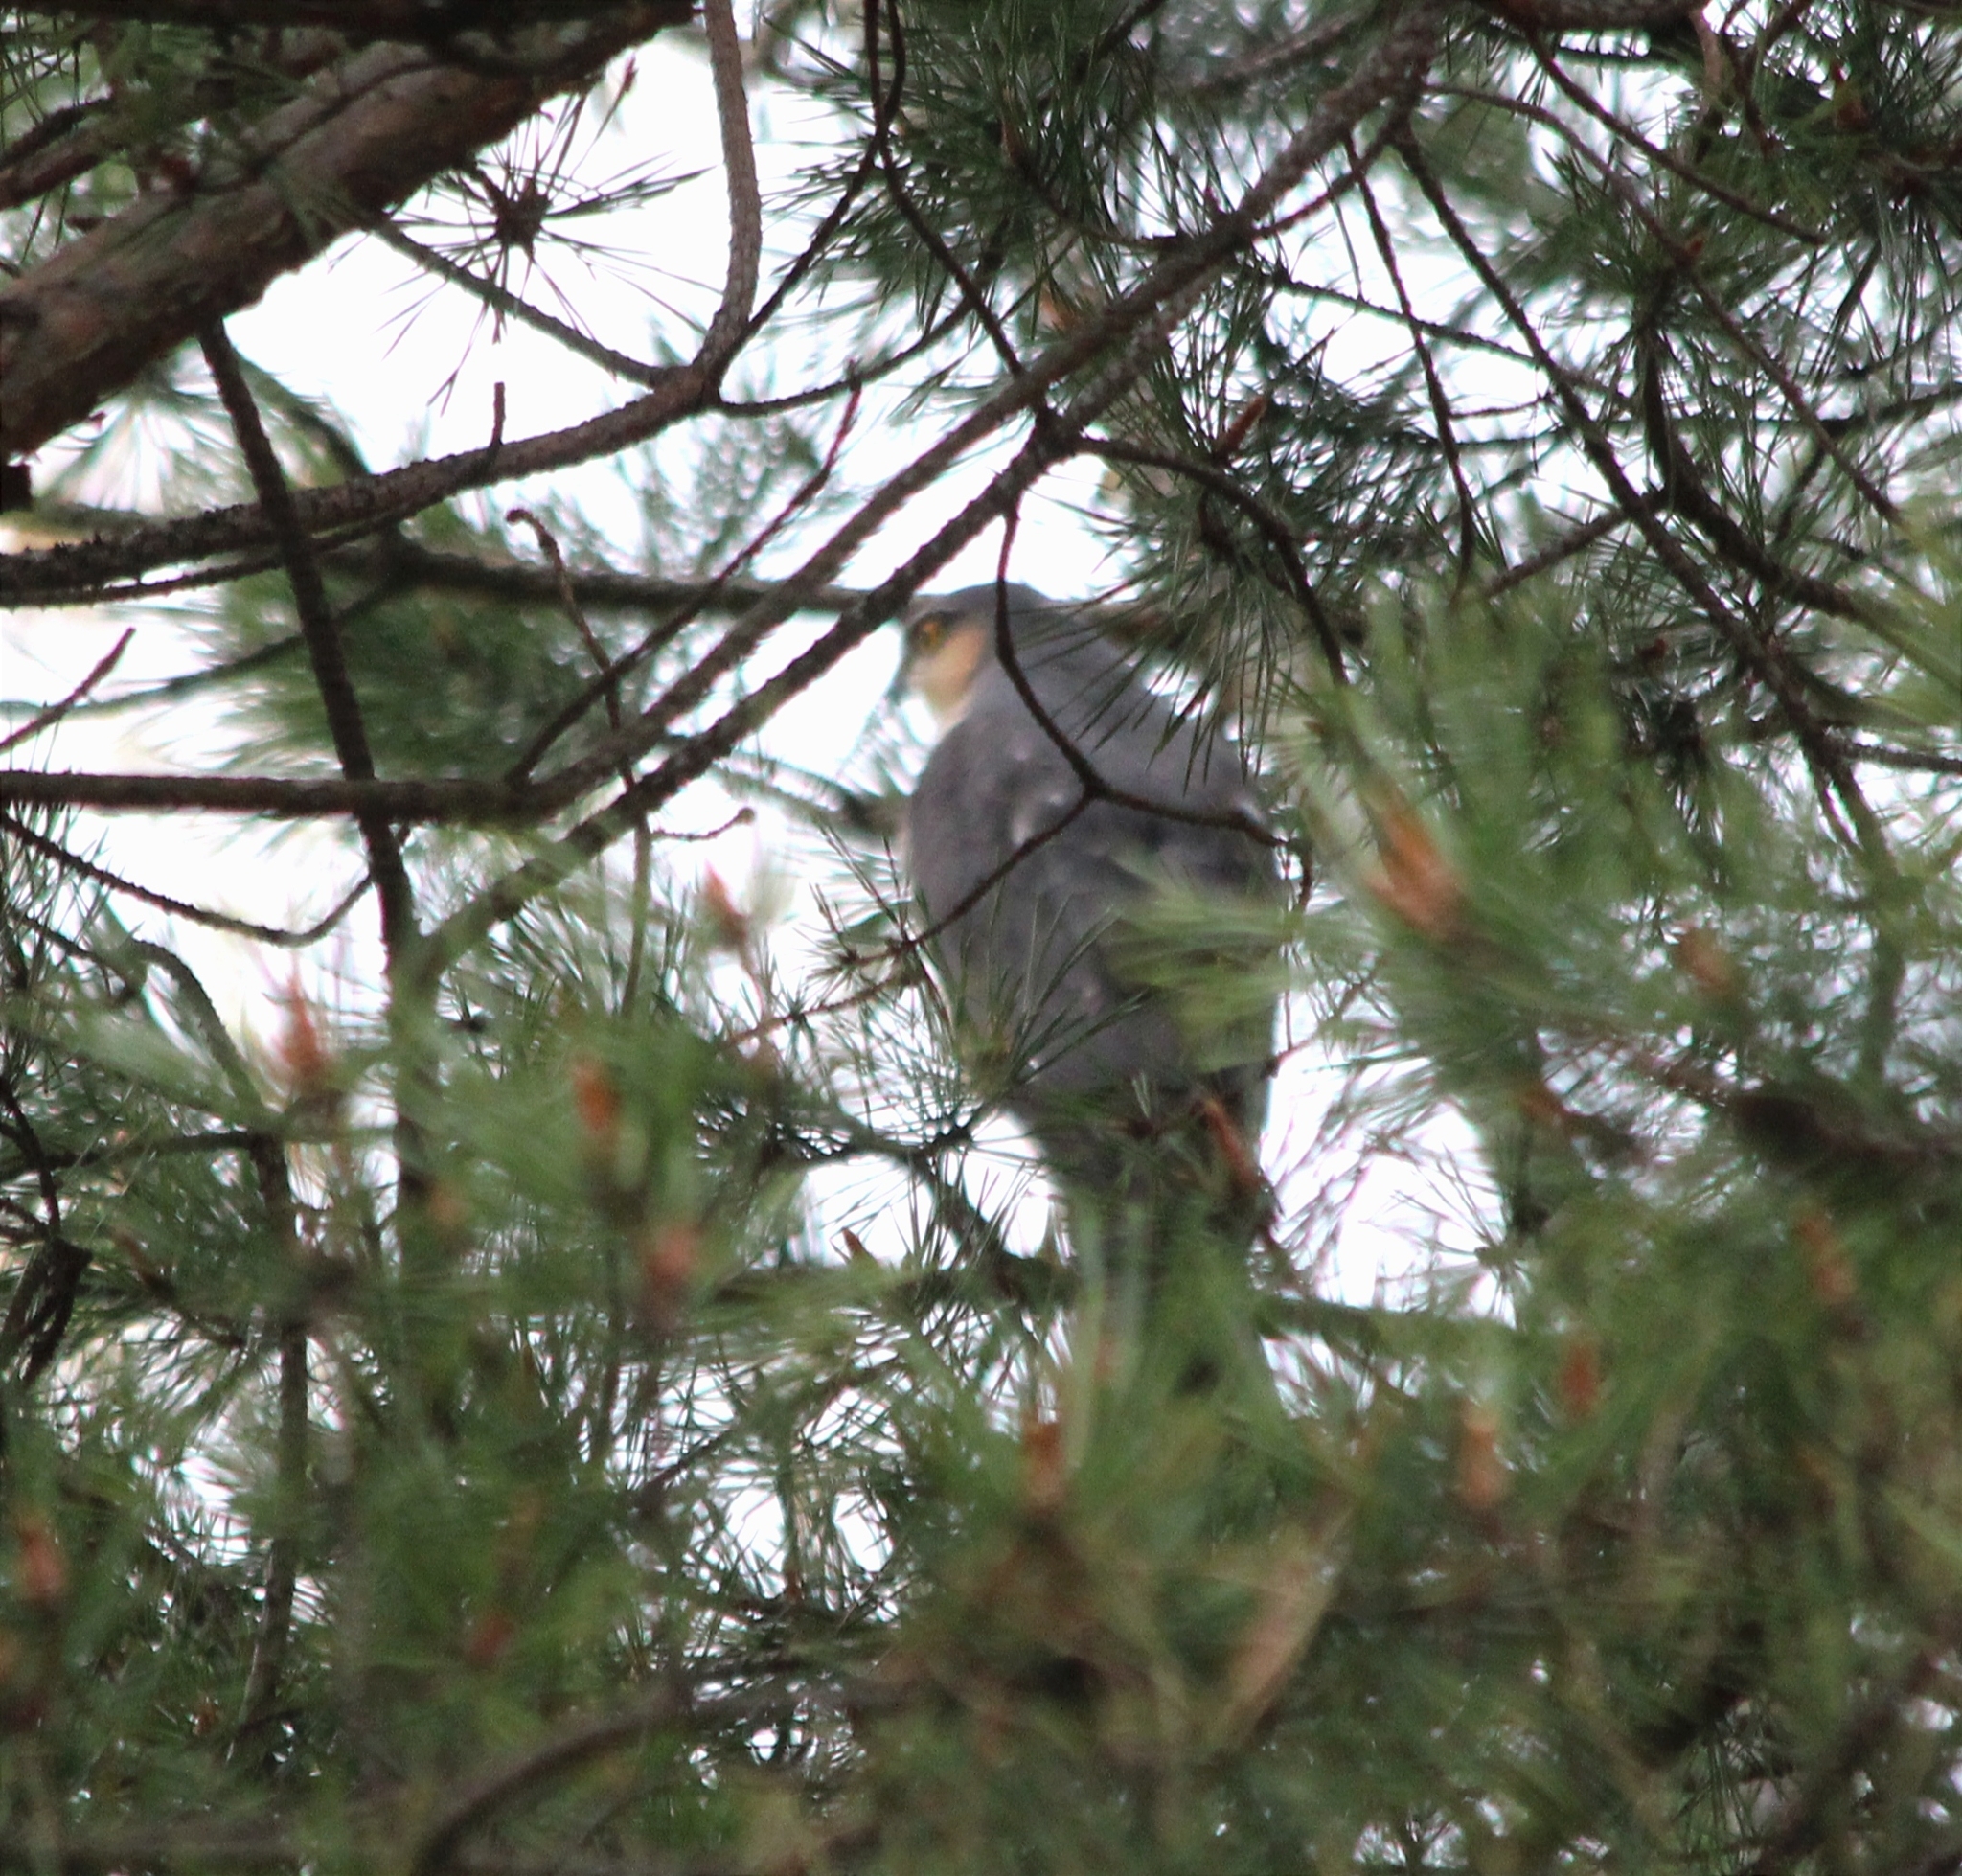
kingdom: Animalia
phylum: Chordata
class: Aves
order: Accipitriformes
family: Accipitridae
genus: Accipiter
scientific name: Accipiter nisus
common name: Eurasian sparrowhawk
